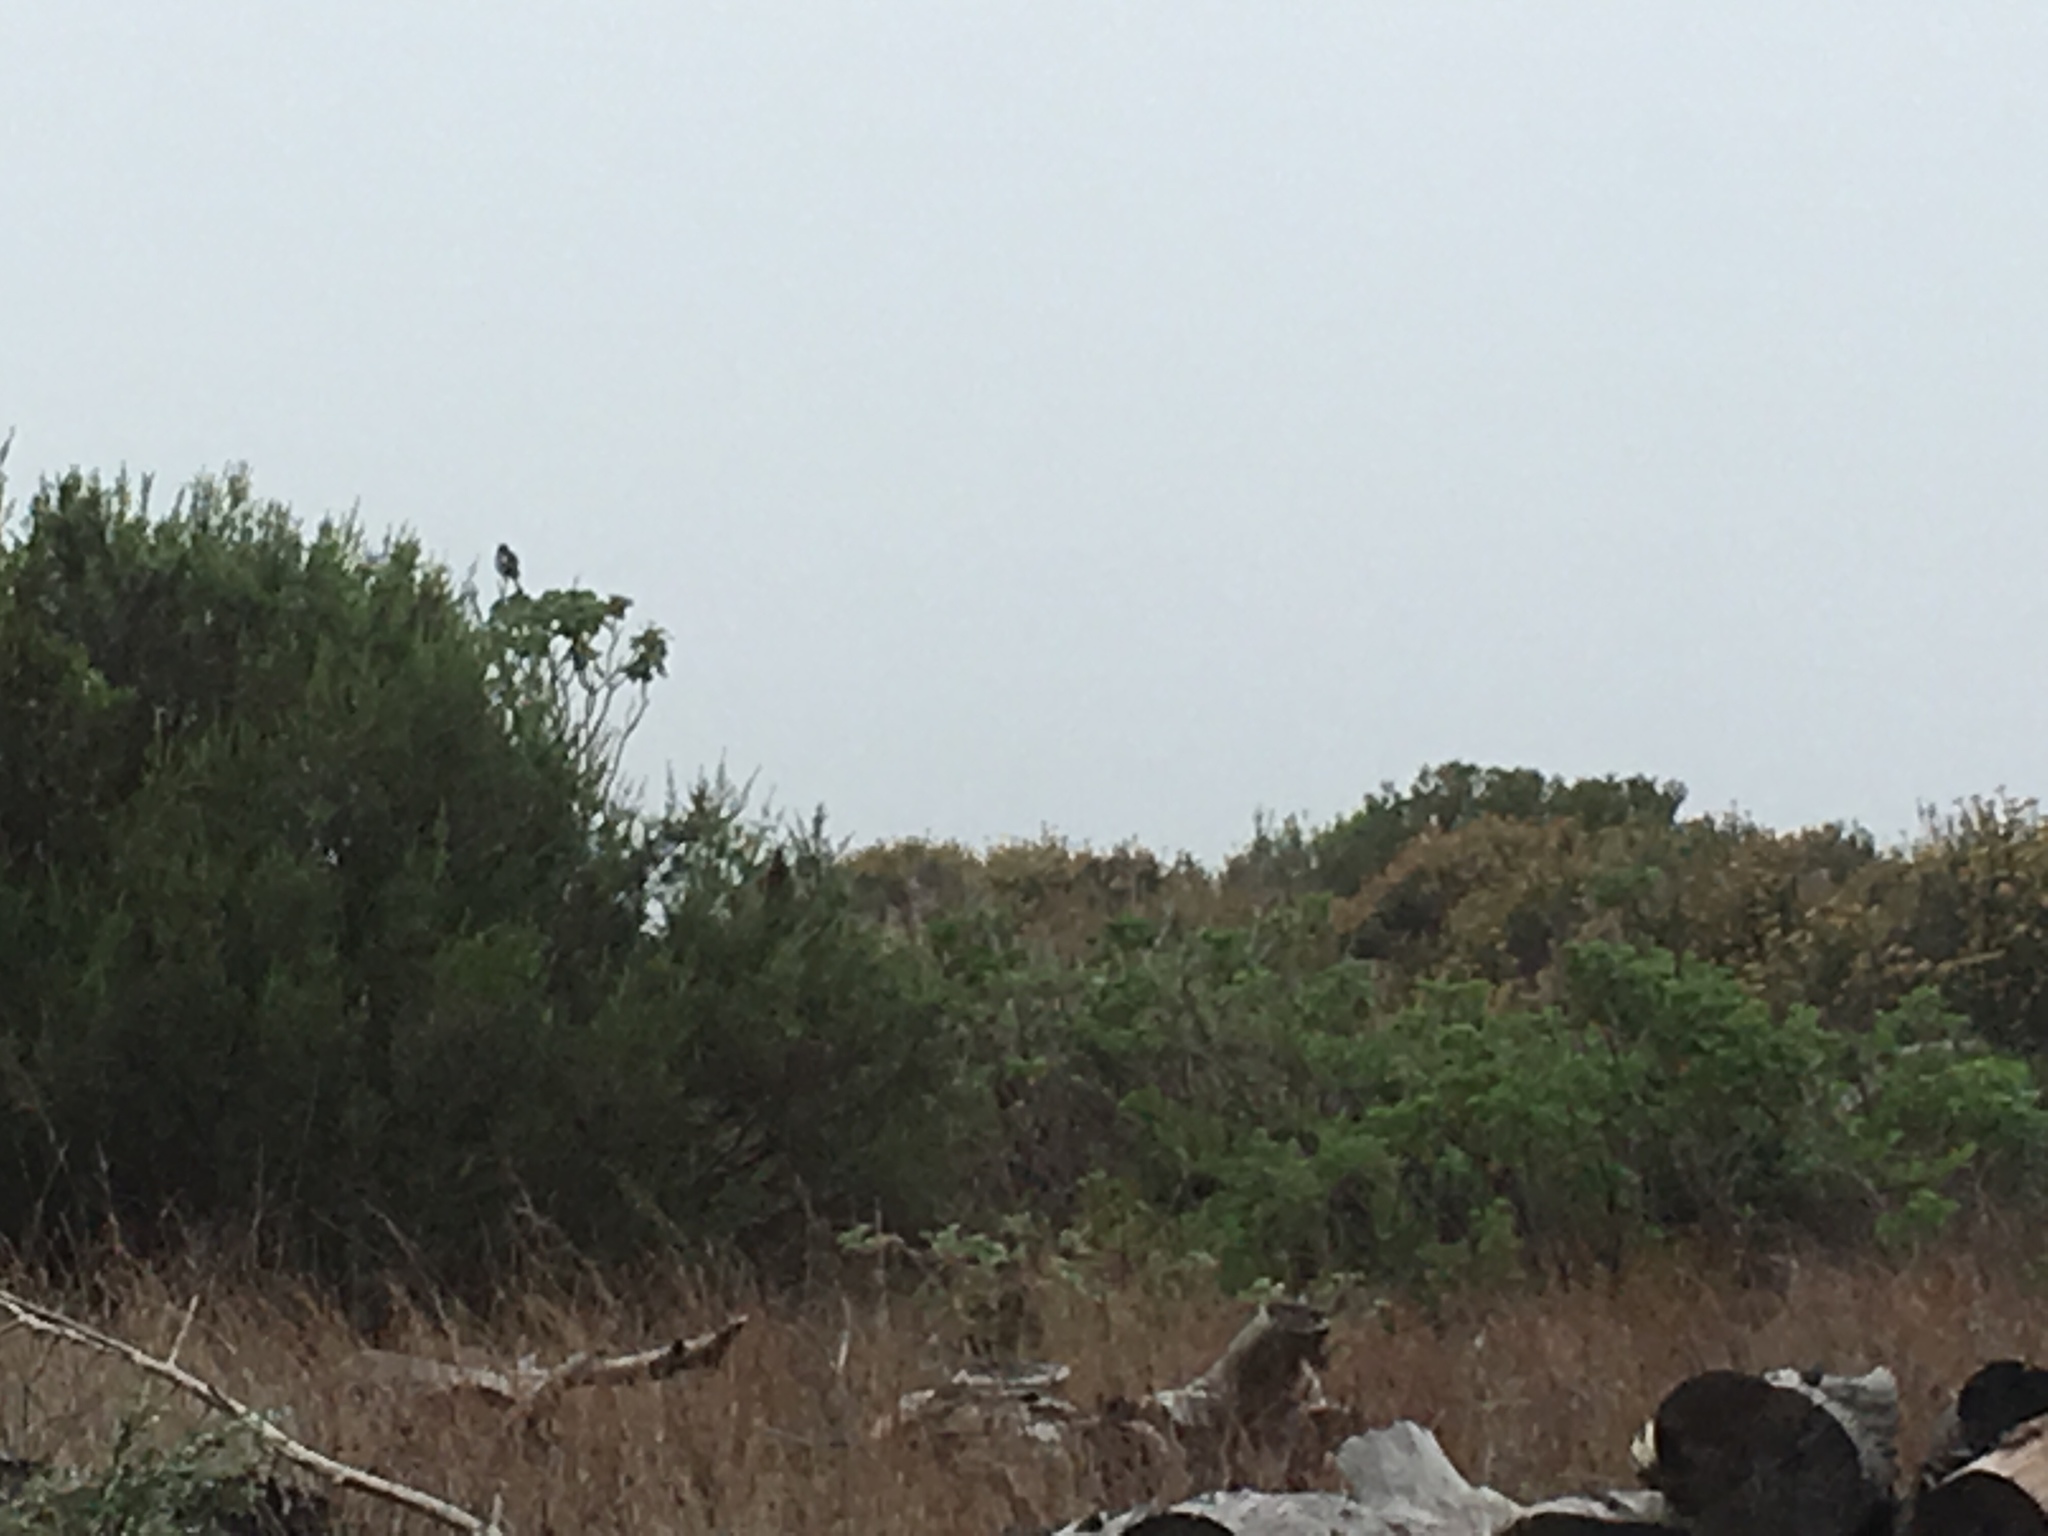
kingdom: Animalia
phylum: Chordata
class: Aves
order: Passeriformes
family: Laniidae
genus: Lanius
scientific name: Lanius collaris
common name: Southern fiscal
